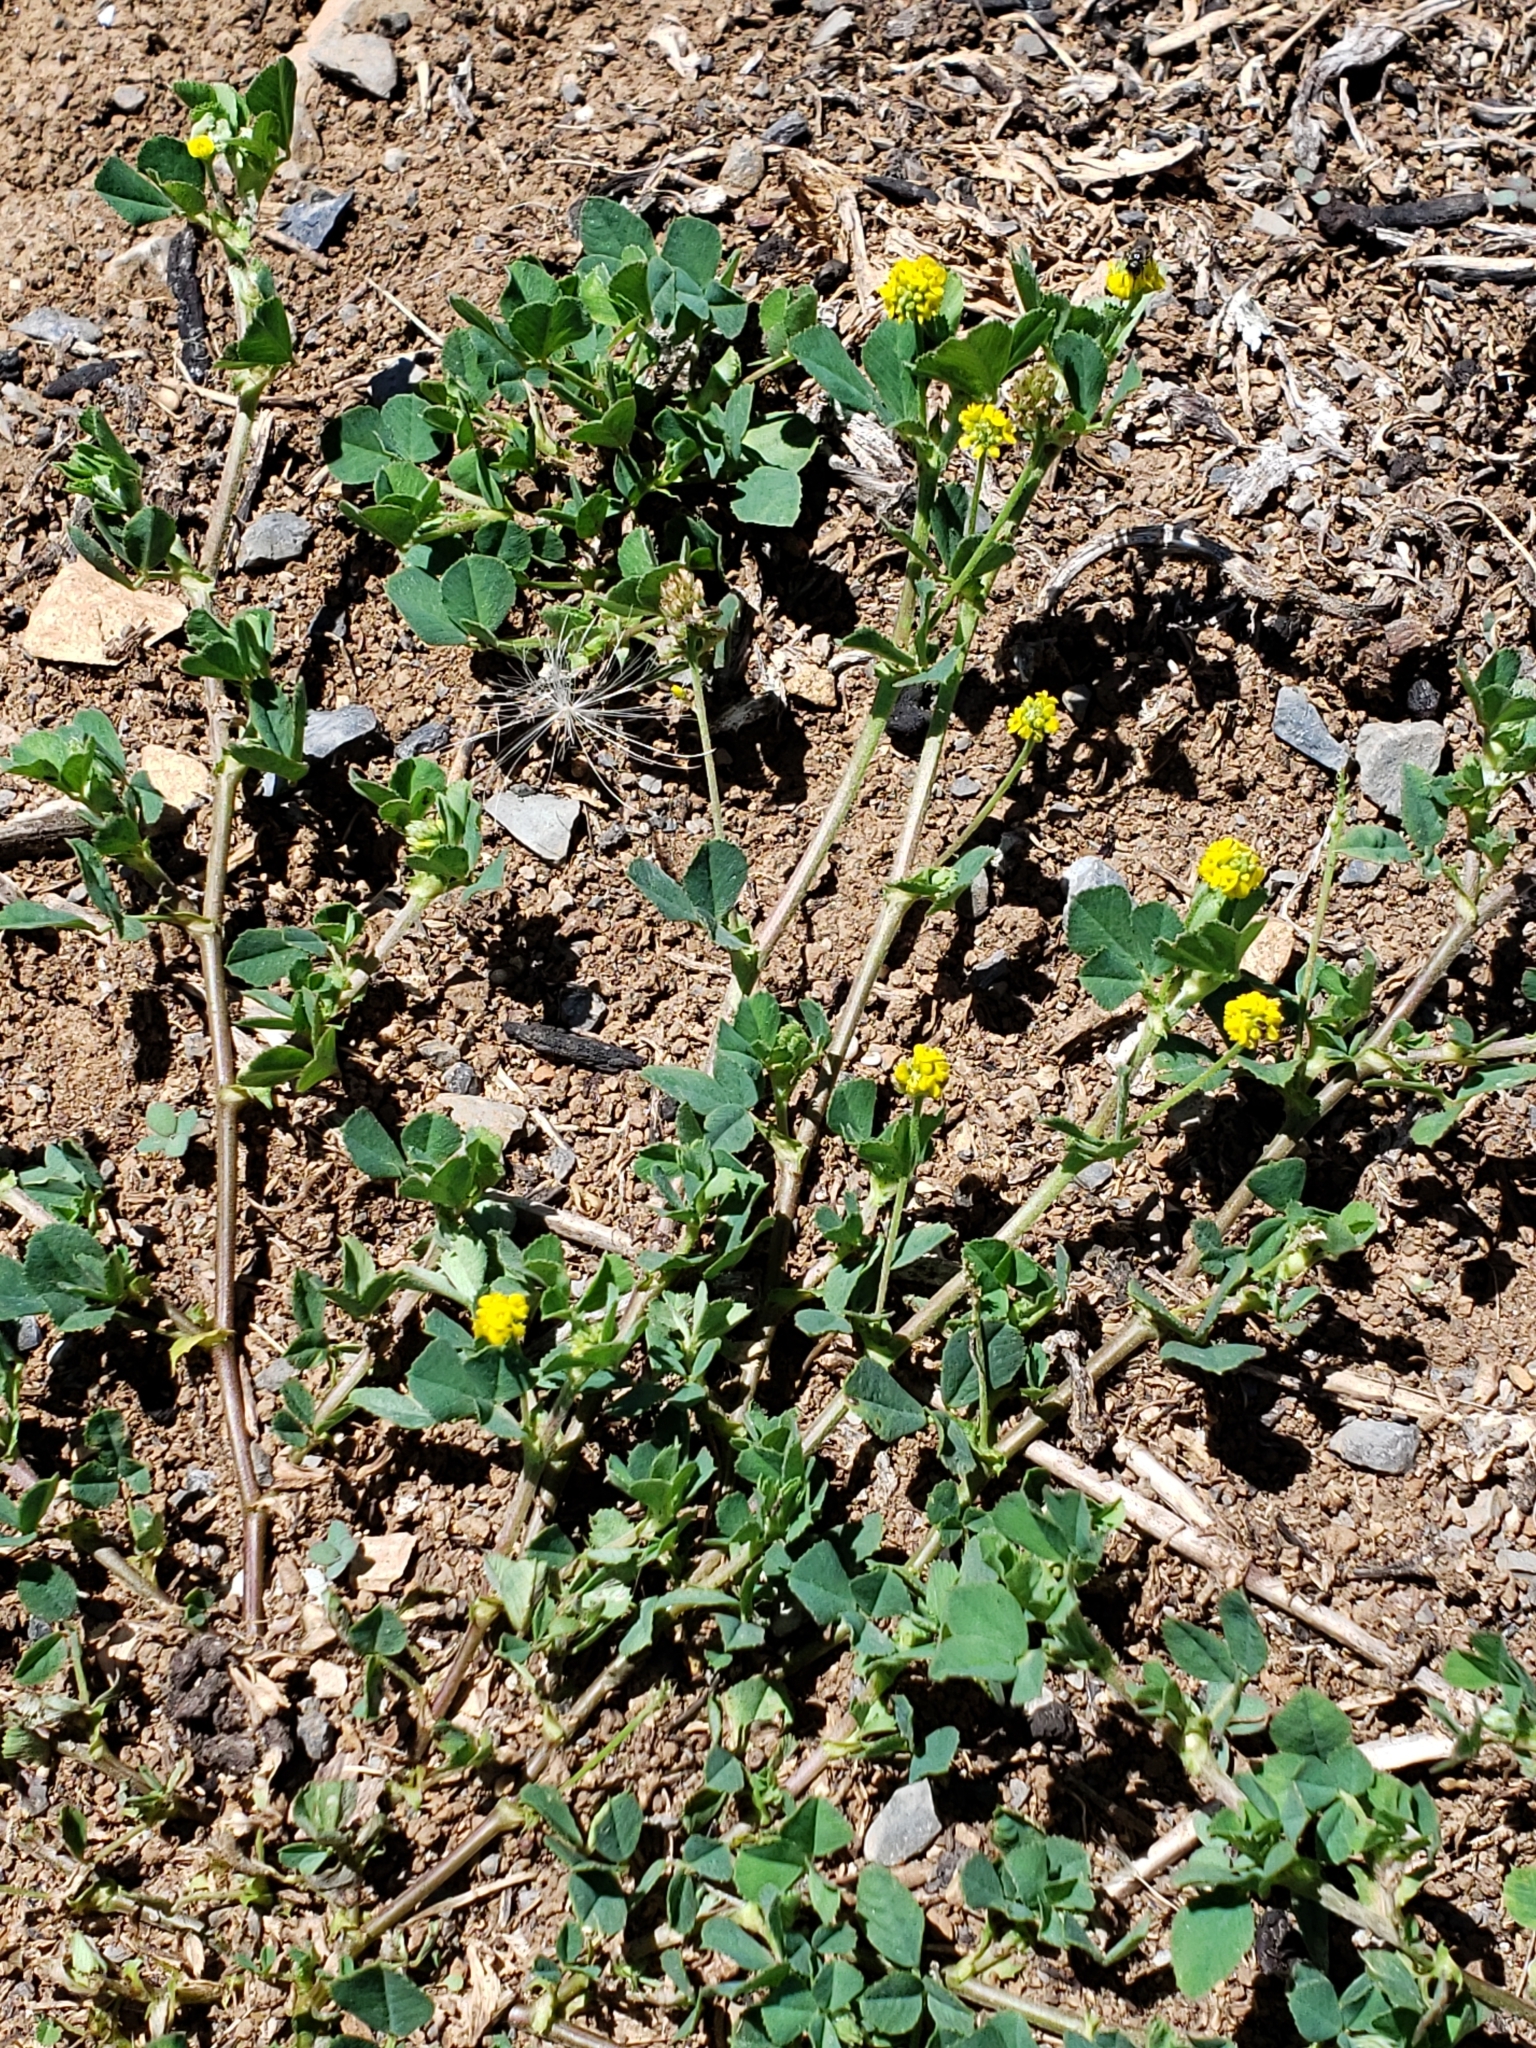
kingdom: Plantae
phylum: Tracheophyta
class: Magnoliopsida
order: Fabales
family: Fabaceae
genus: Medicago
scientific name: Medicago lupulina
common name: Black medick
